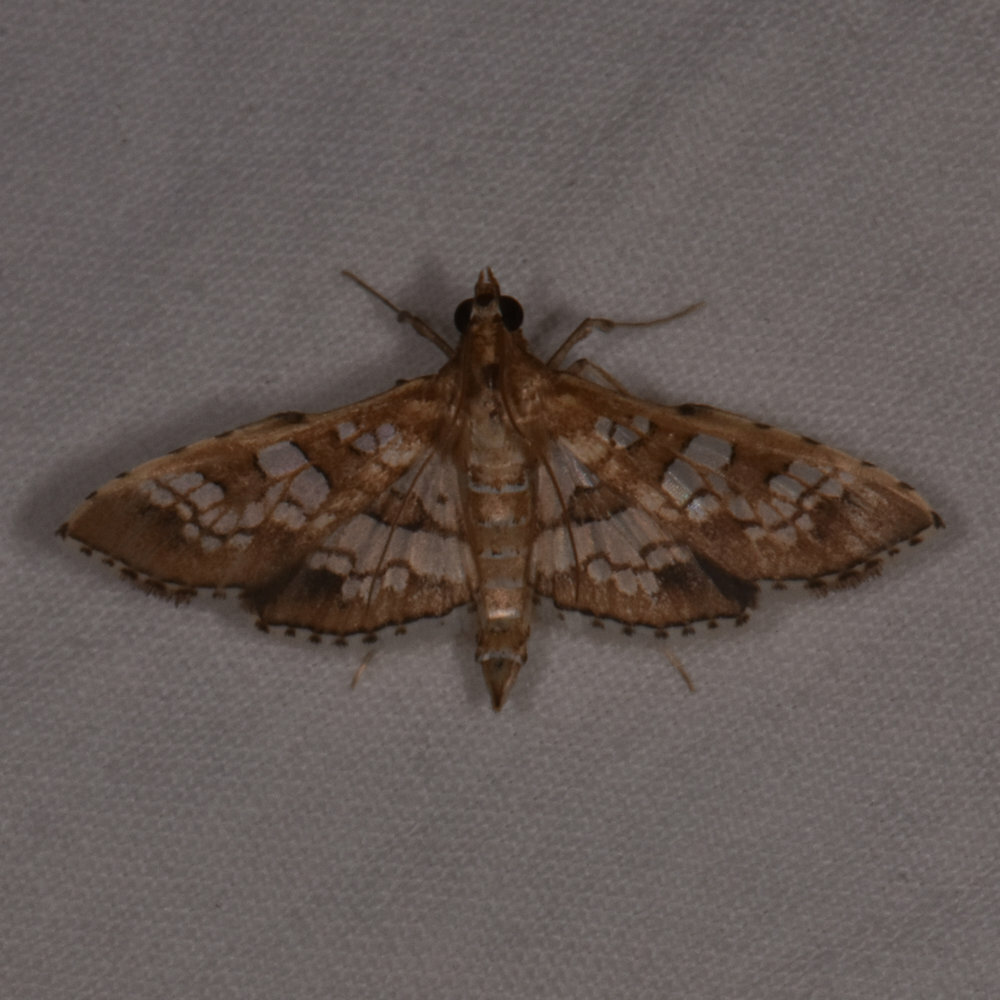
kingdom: Animalia
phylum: Arthropoda
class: Insecta
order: Lepidoptera
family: Crambidae
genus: Sameodes
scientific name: Sameodes cancellalis
